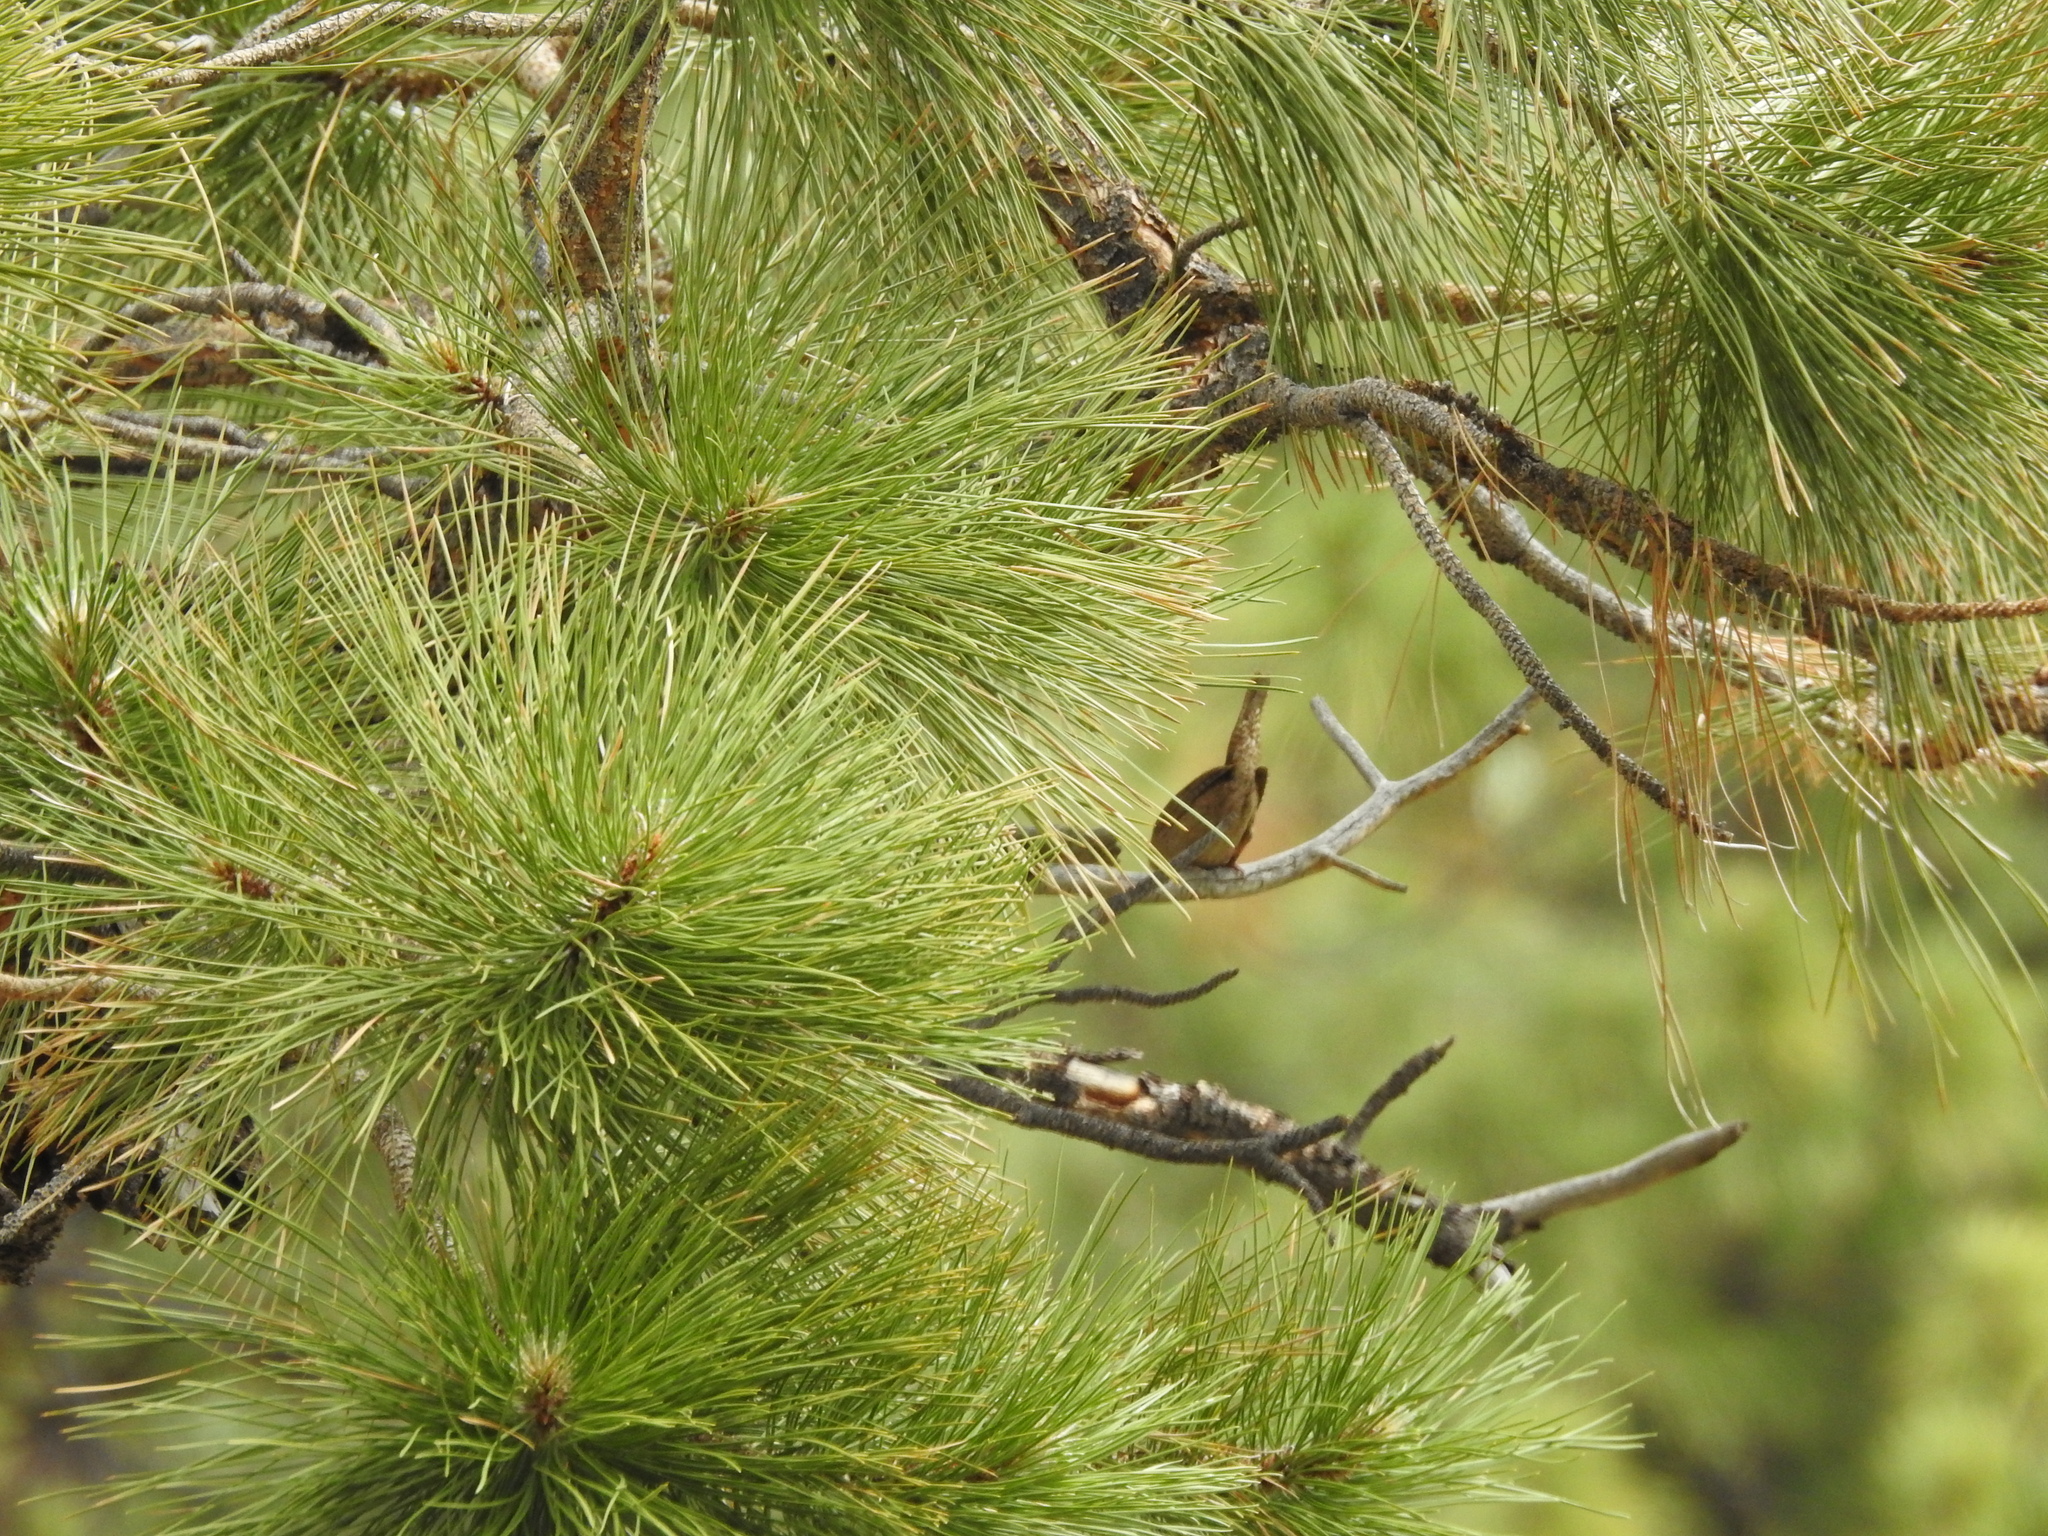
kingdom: Animalia
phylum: Chordata
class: Aves
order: Passeriformes
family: Troglodytidae
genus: Troglodytes
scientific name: Troglodytes aedon
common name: House wren
